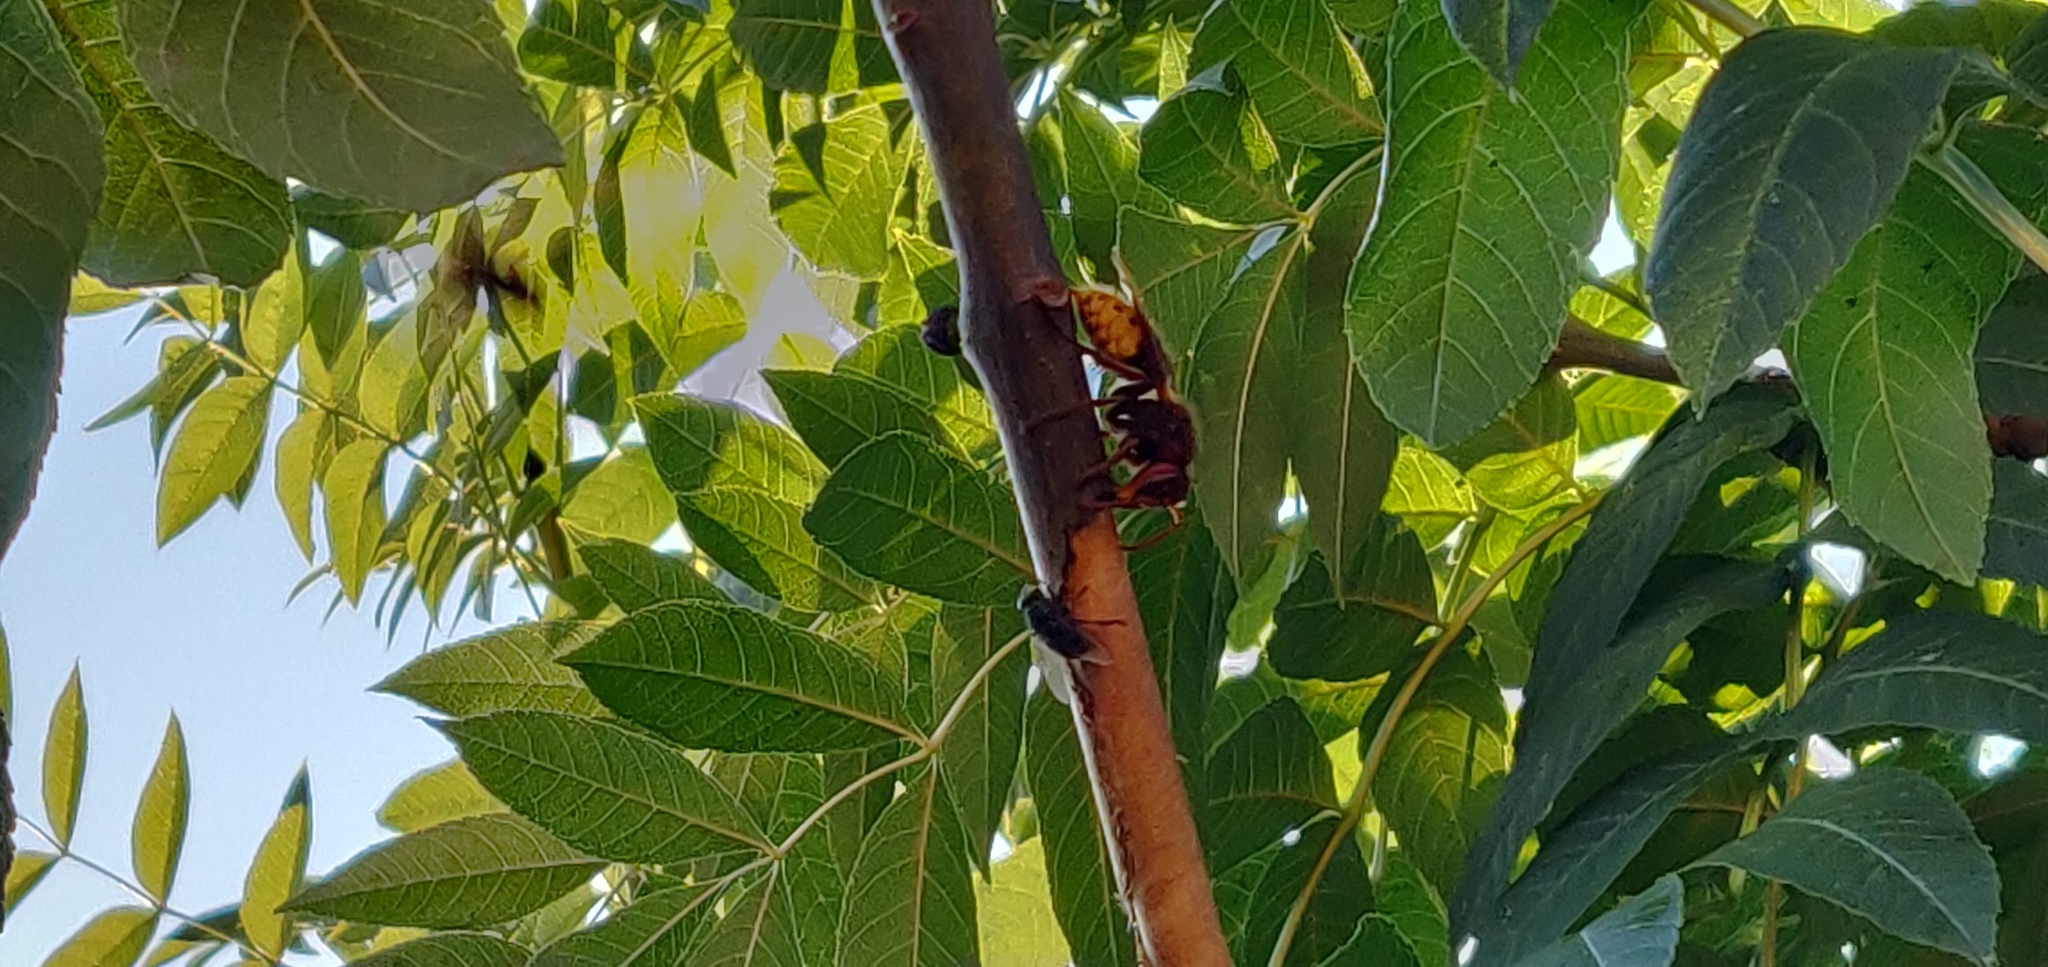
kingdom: Animalia
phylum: Arthropoda
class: Insecta
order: Hymenoptera
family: Vespidae
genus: Vespa
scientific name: Vespa crabro
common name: Hornet
